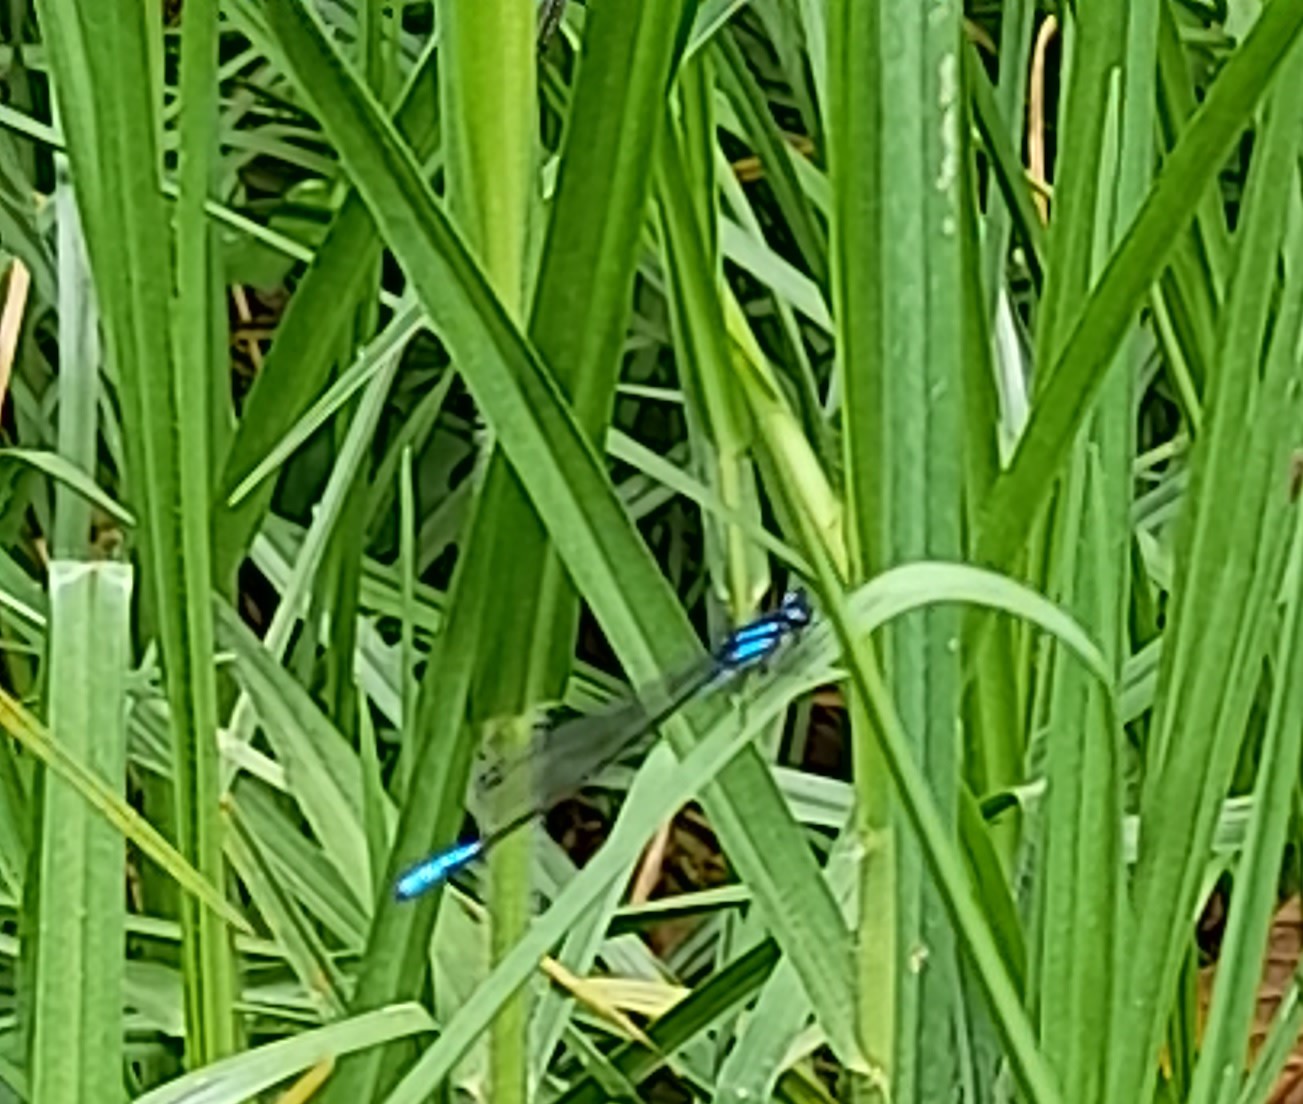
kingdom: Animalia
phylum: Arthropoda
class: Insecta
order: Odonata
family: Coenagrionidae
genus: Mesamphiagrion
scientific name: Mesamphiagrion laterale
